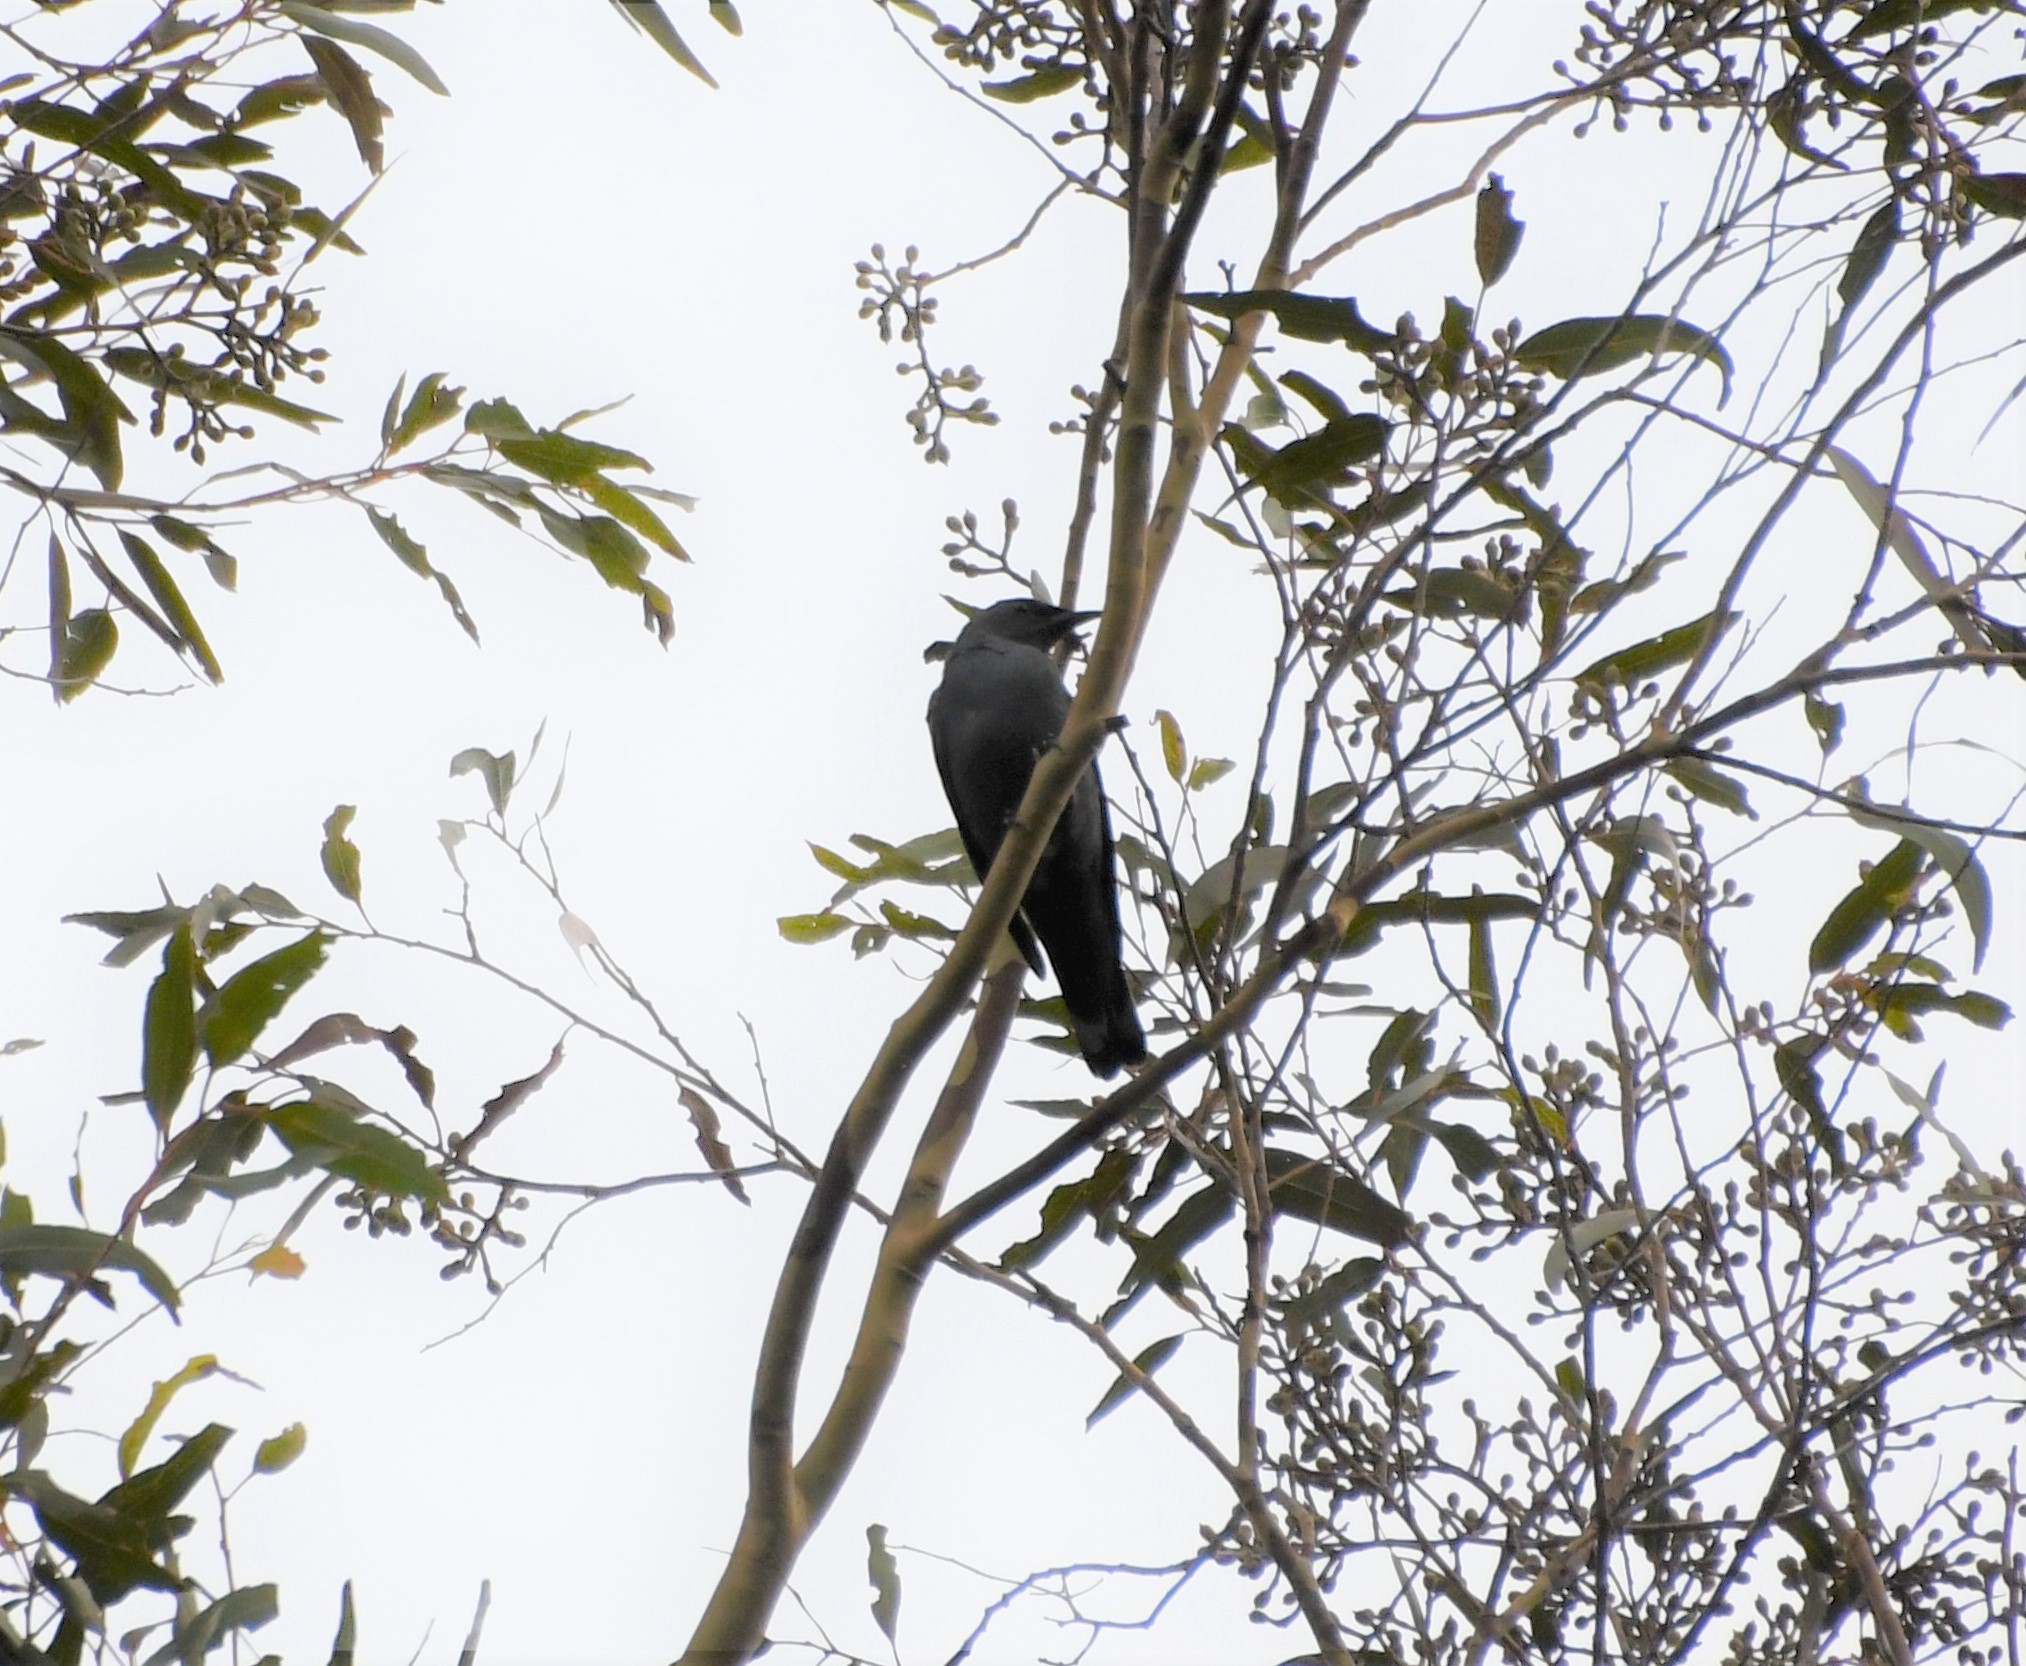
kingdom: Animalia
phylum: Chordata
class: Aves
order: Passeriformes
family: Campephagidae
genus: Edolisoma
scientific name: Edolisoma tenuirostre
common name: Common cicadabird
